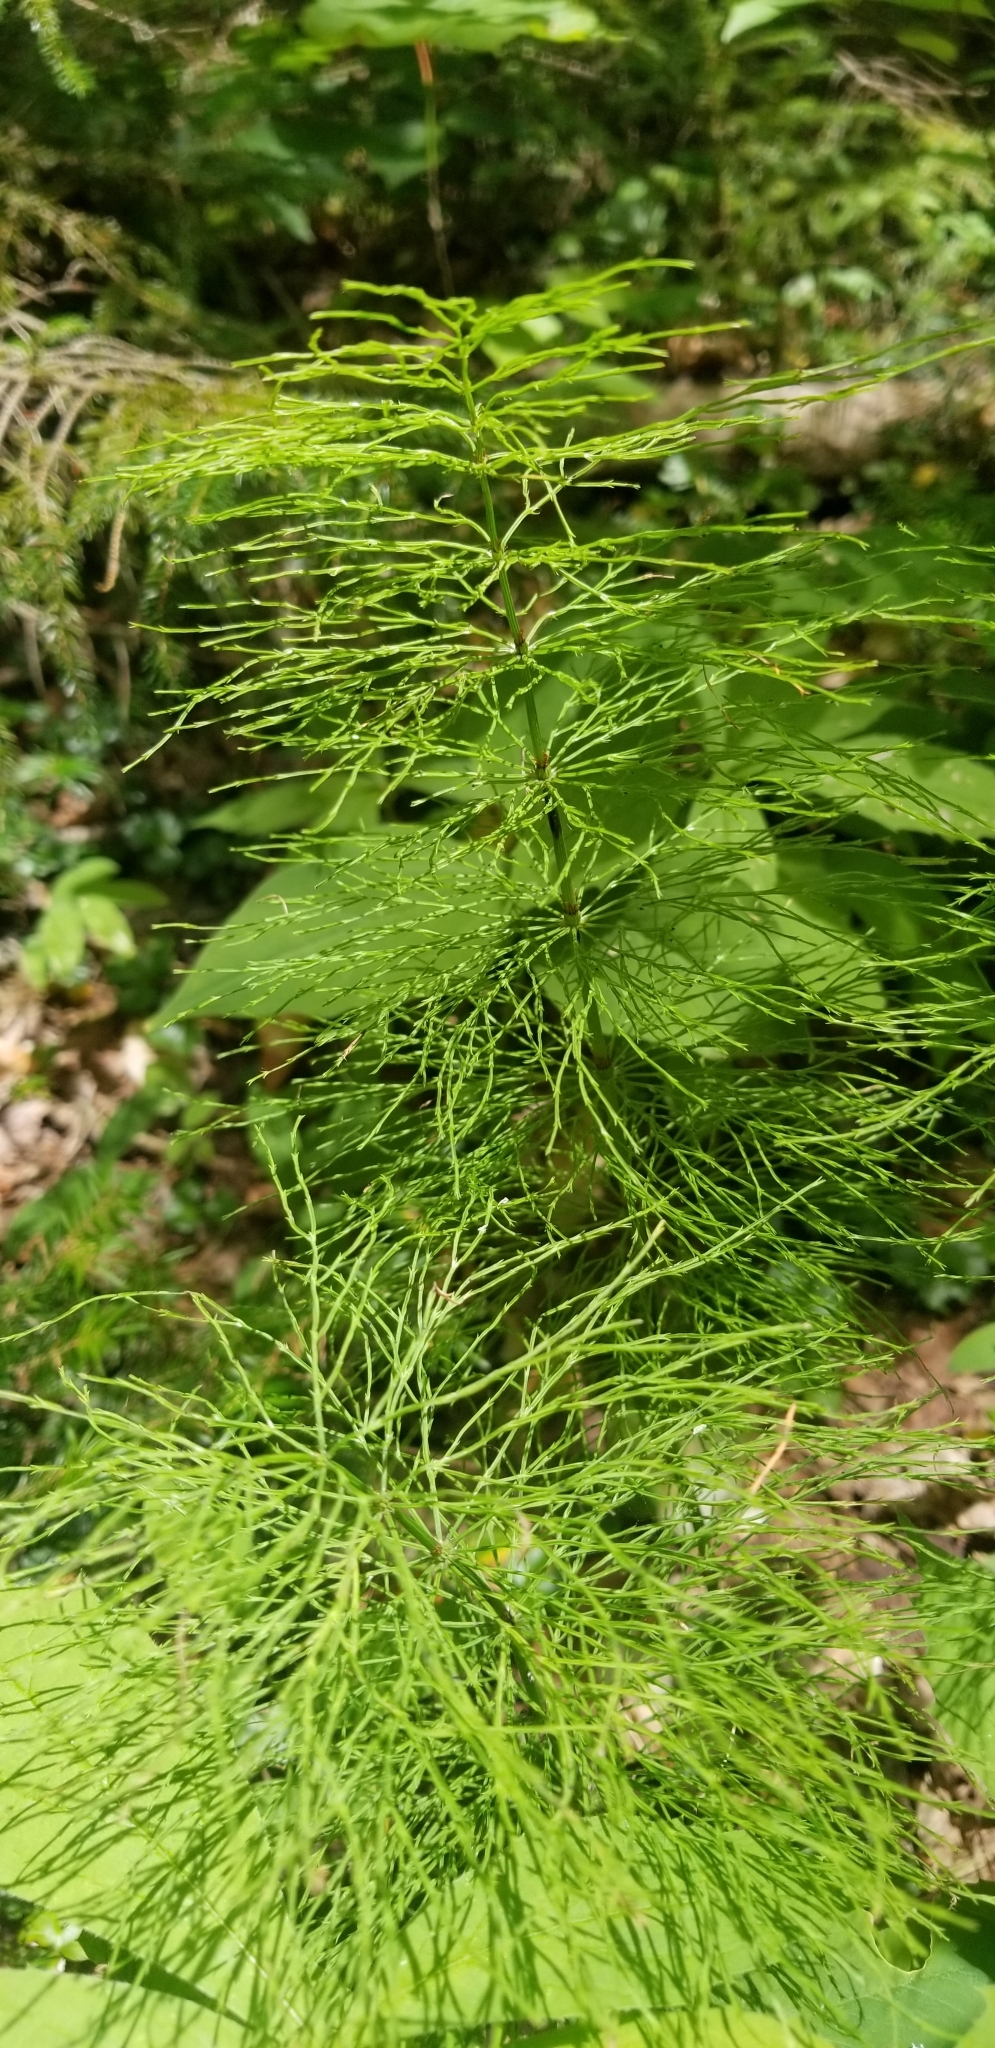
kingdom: Plantae
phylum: Tracheophyta
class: Polypodiopsida
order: Equisetales
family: Equisetaceae
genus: Equisetum
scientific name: Equisetum sylvaticum
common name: Wood horsetail
